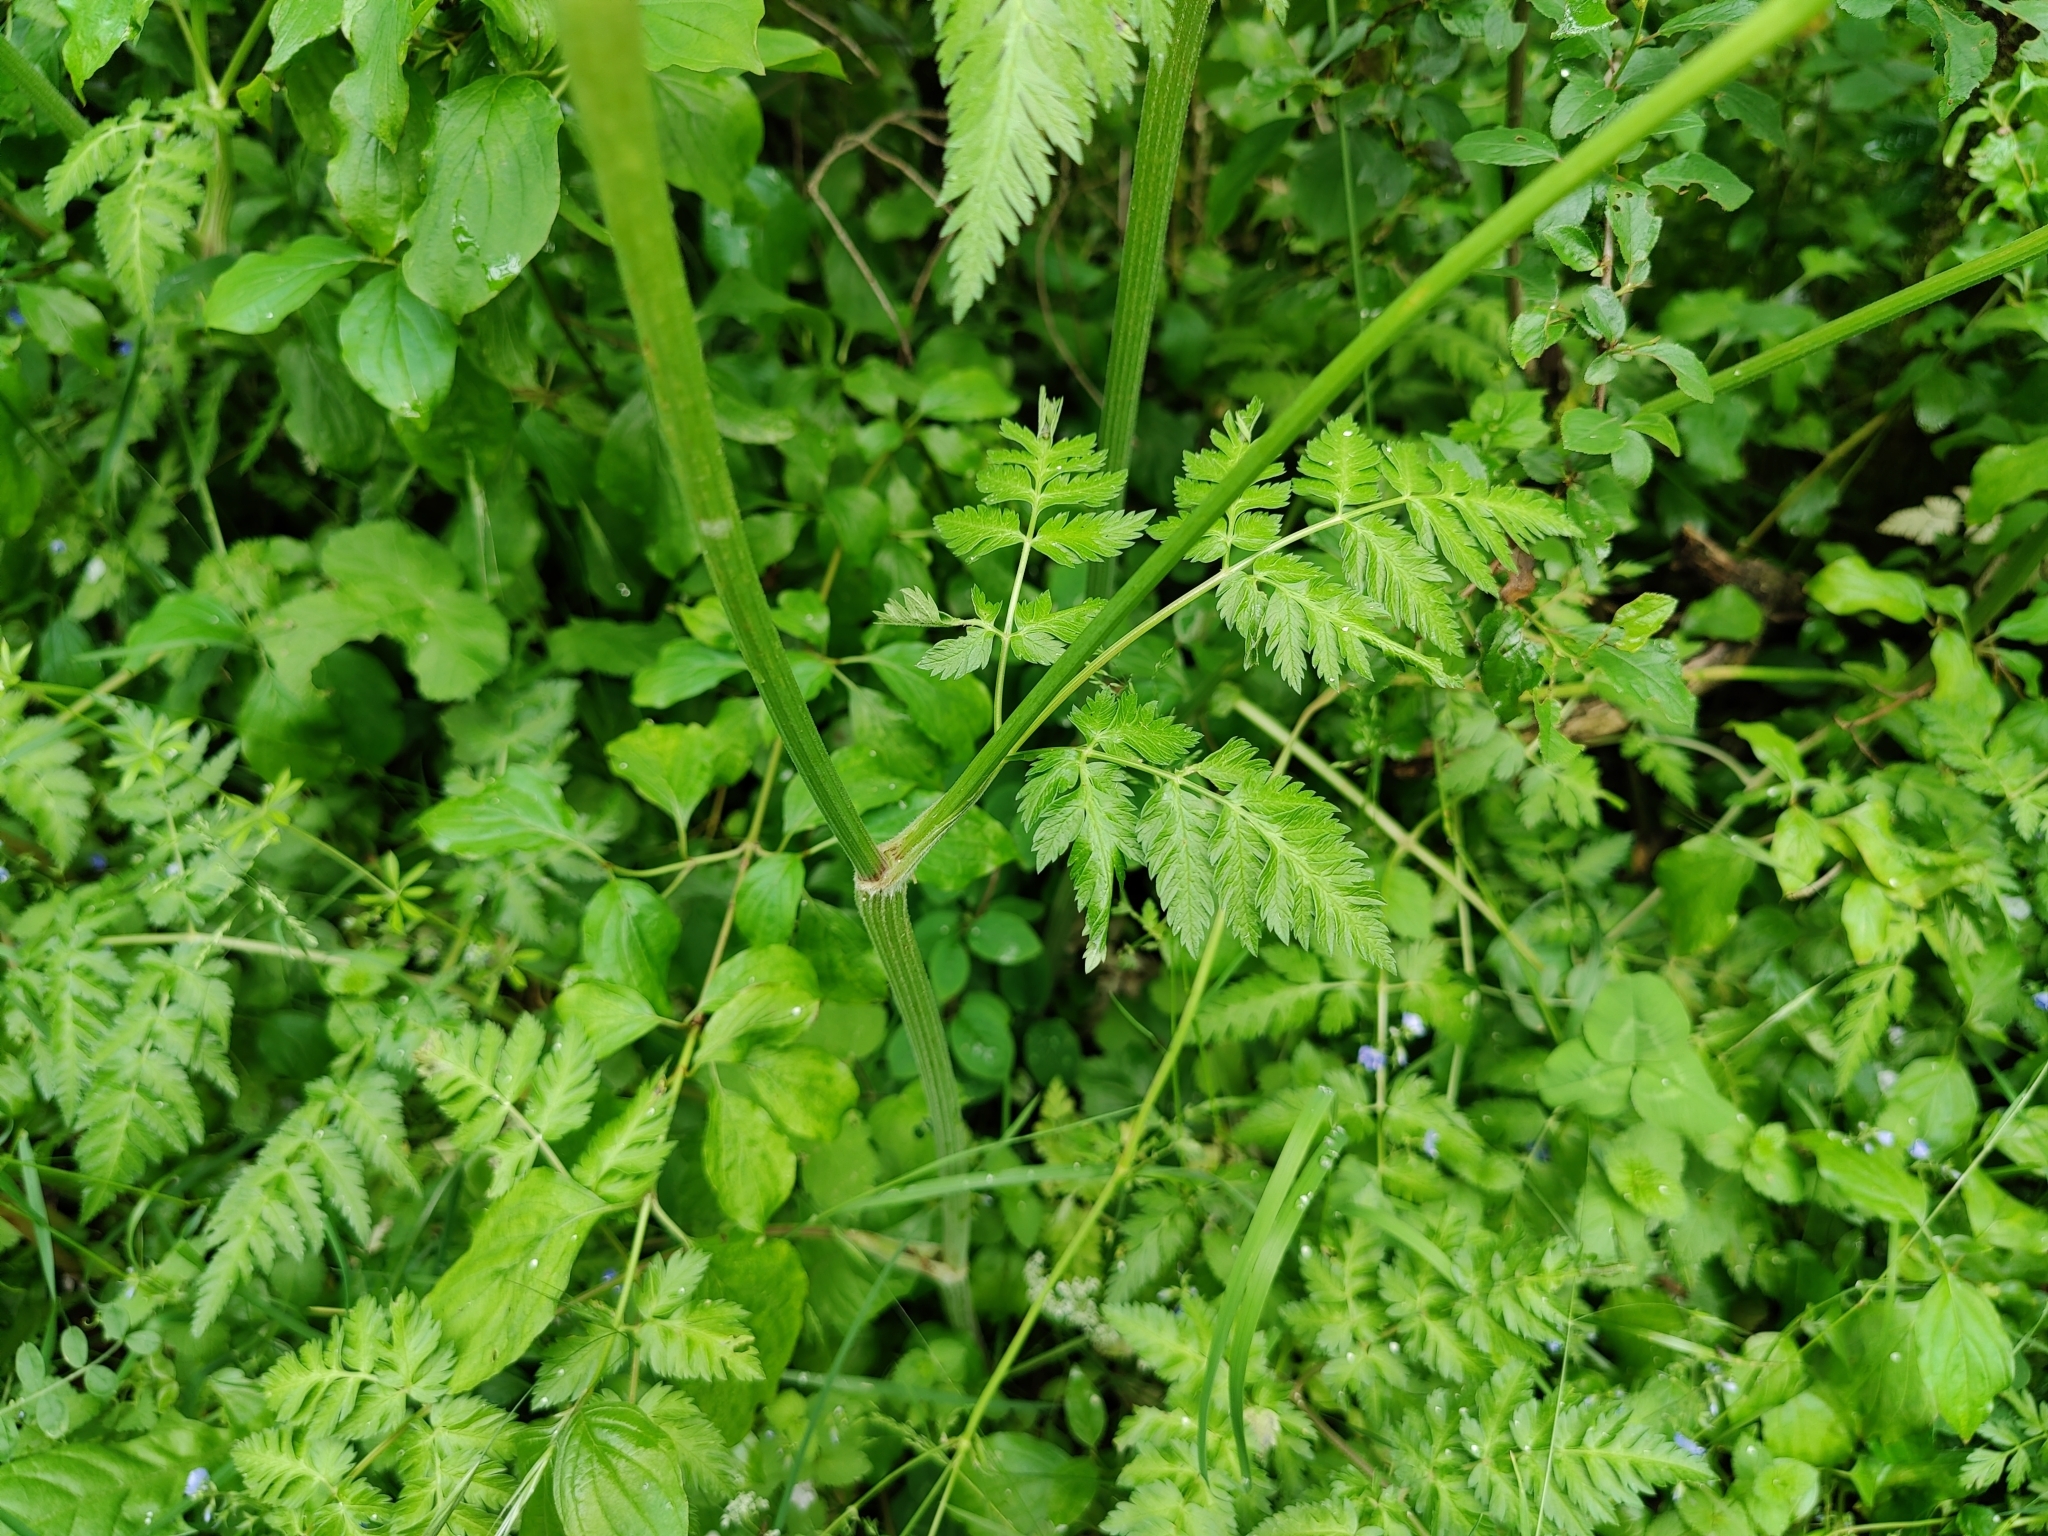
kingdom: Plantae
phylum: Tracheophyta
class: Magnoliopsida
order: Apiales
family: Apiaceae
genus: Anthriscus
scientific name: Anthriscus sylvestris
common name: Cow parsley
